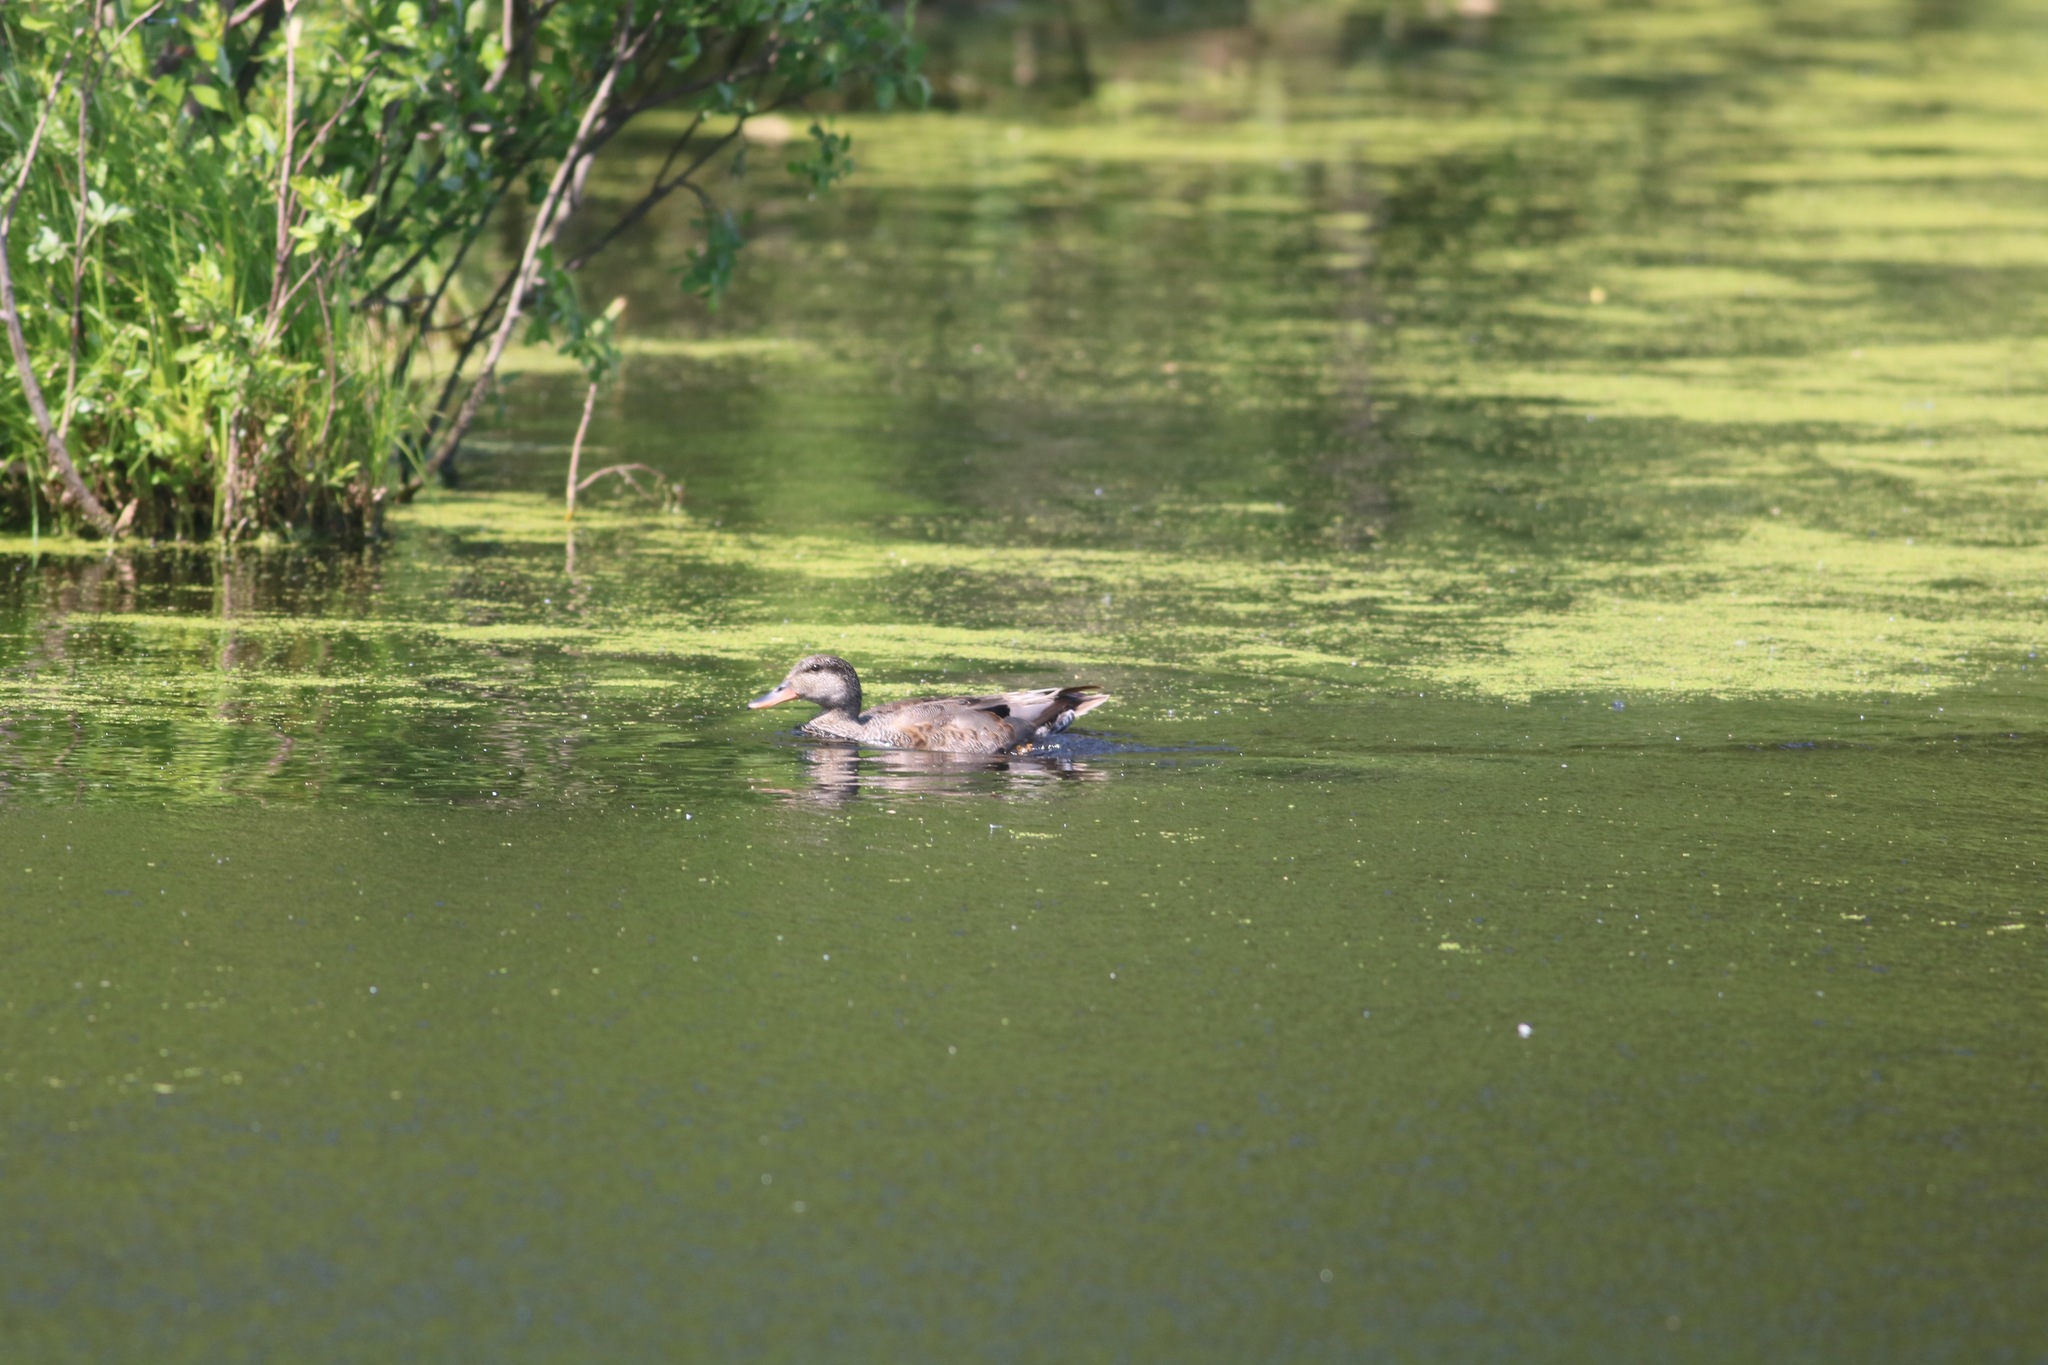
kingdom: Animalia
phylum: Chordata
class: Aves
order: Anseriformes
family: Anatidae
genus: Mareca
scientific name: Mareca strepera
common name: Gadwall
